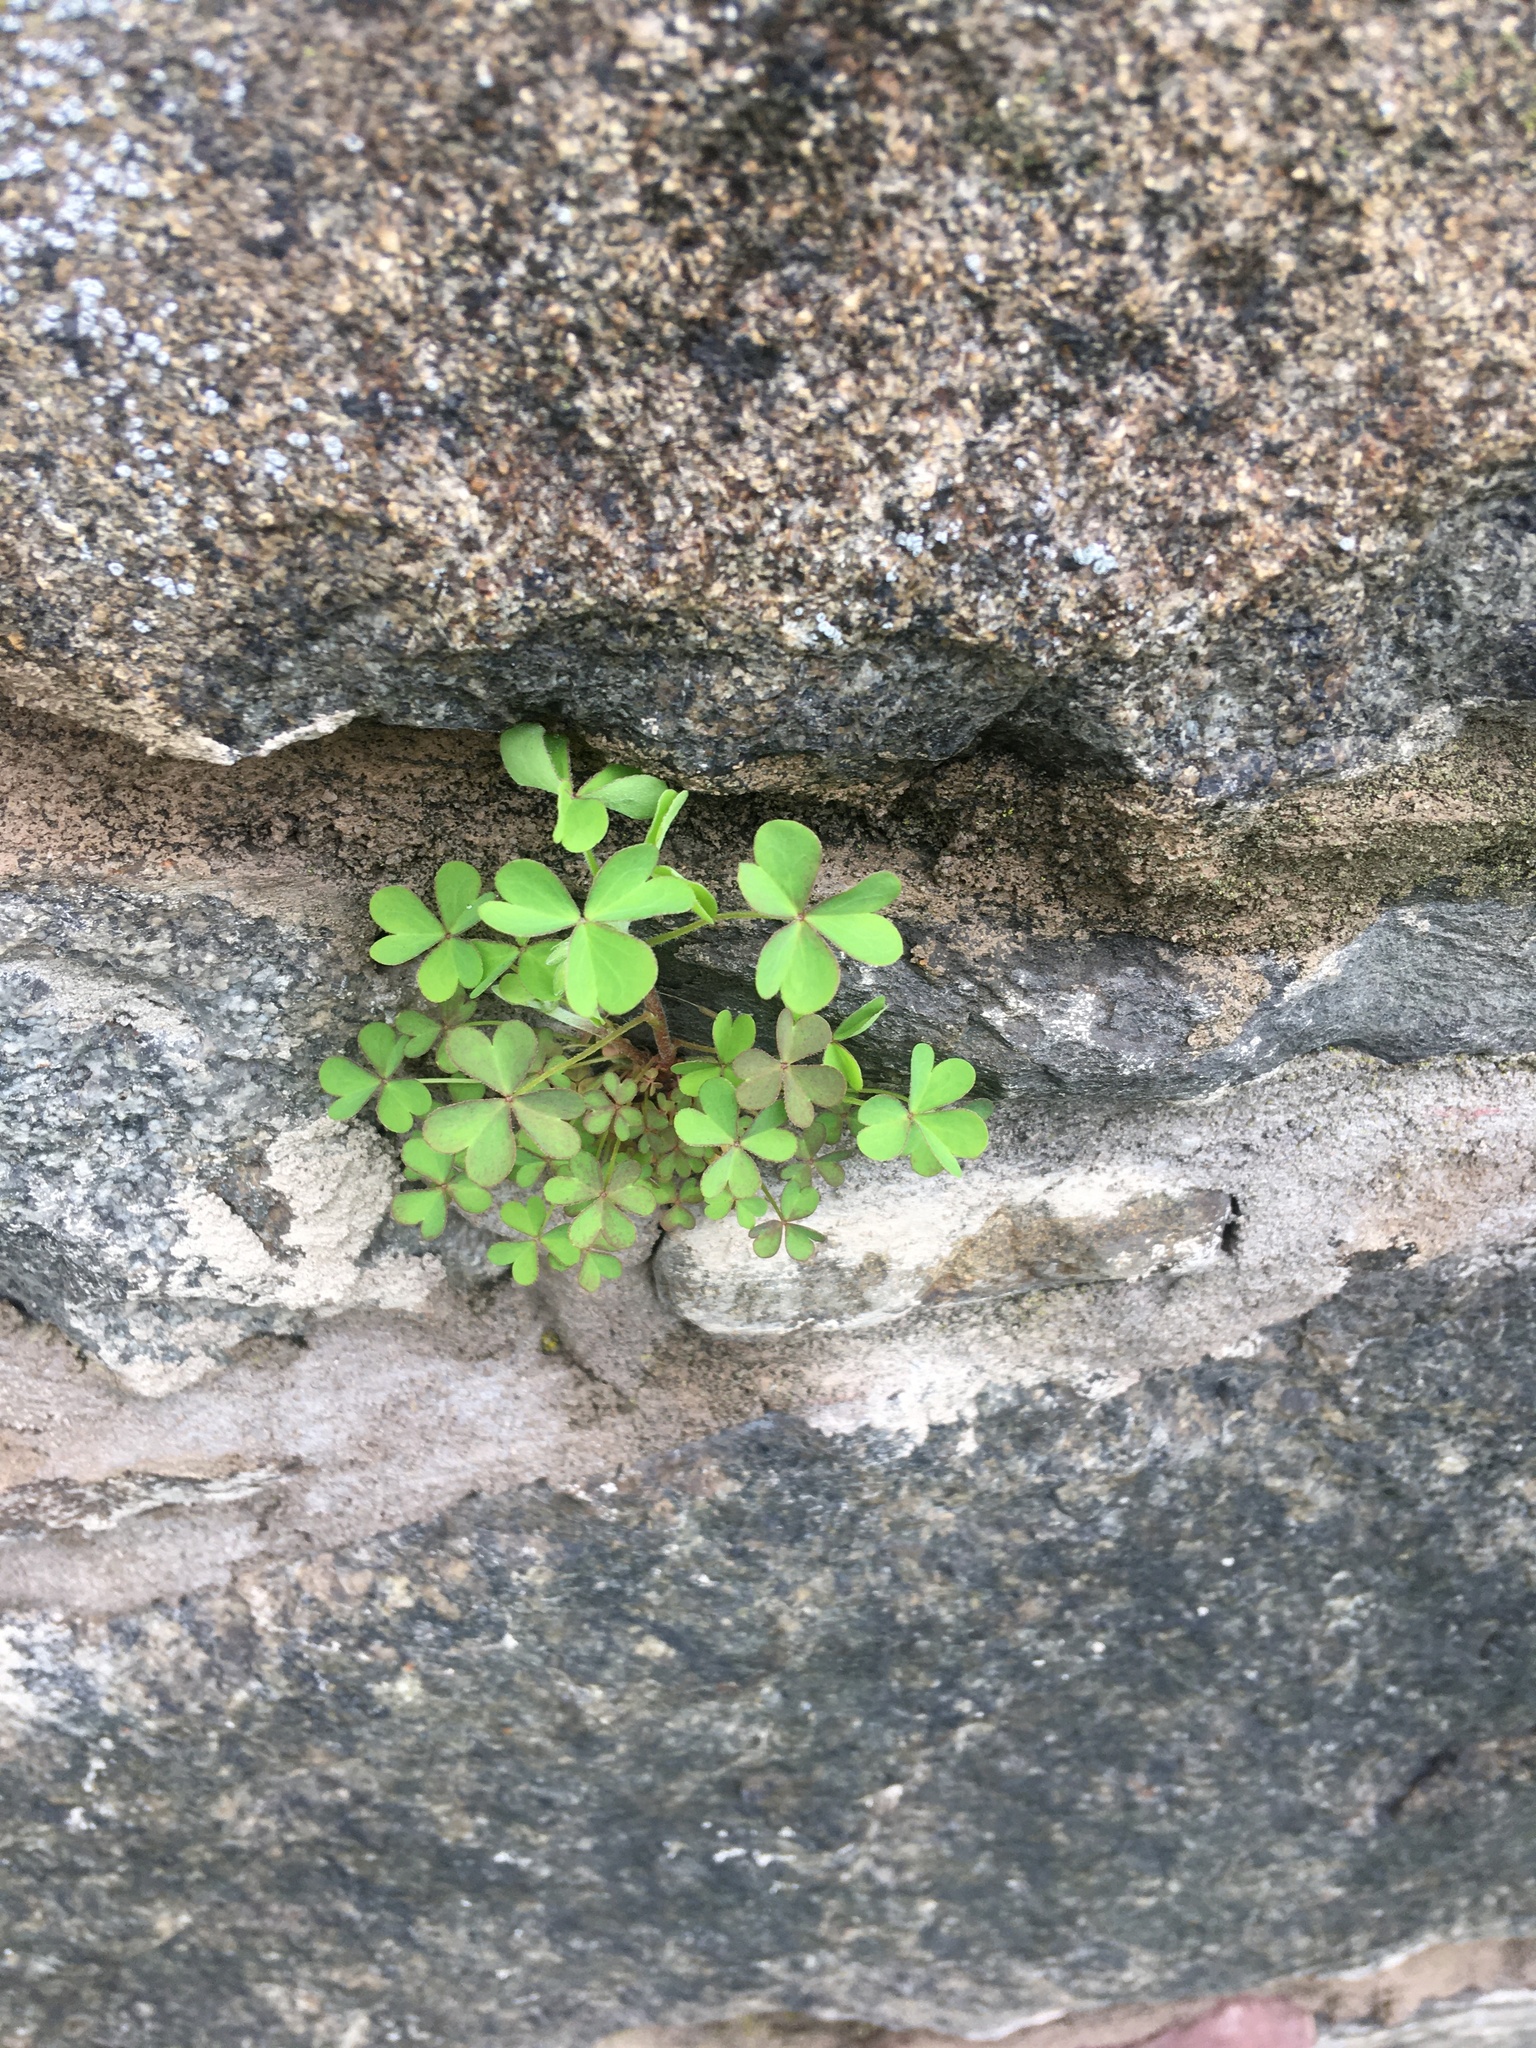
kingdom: Plantae
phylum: Tracheophyta
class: Magnoliopsida
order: Oxalidales
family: Oxalidaceae
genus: Oxalis
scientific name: Oxalis corniculata
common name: Procumbent yellow-sorrel
